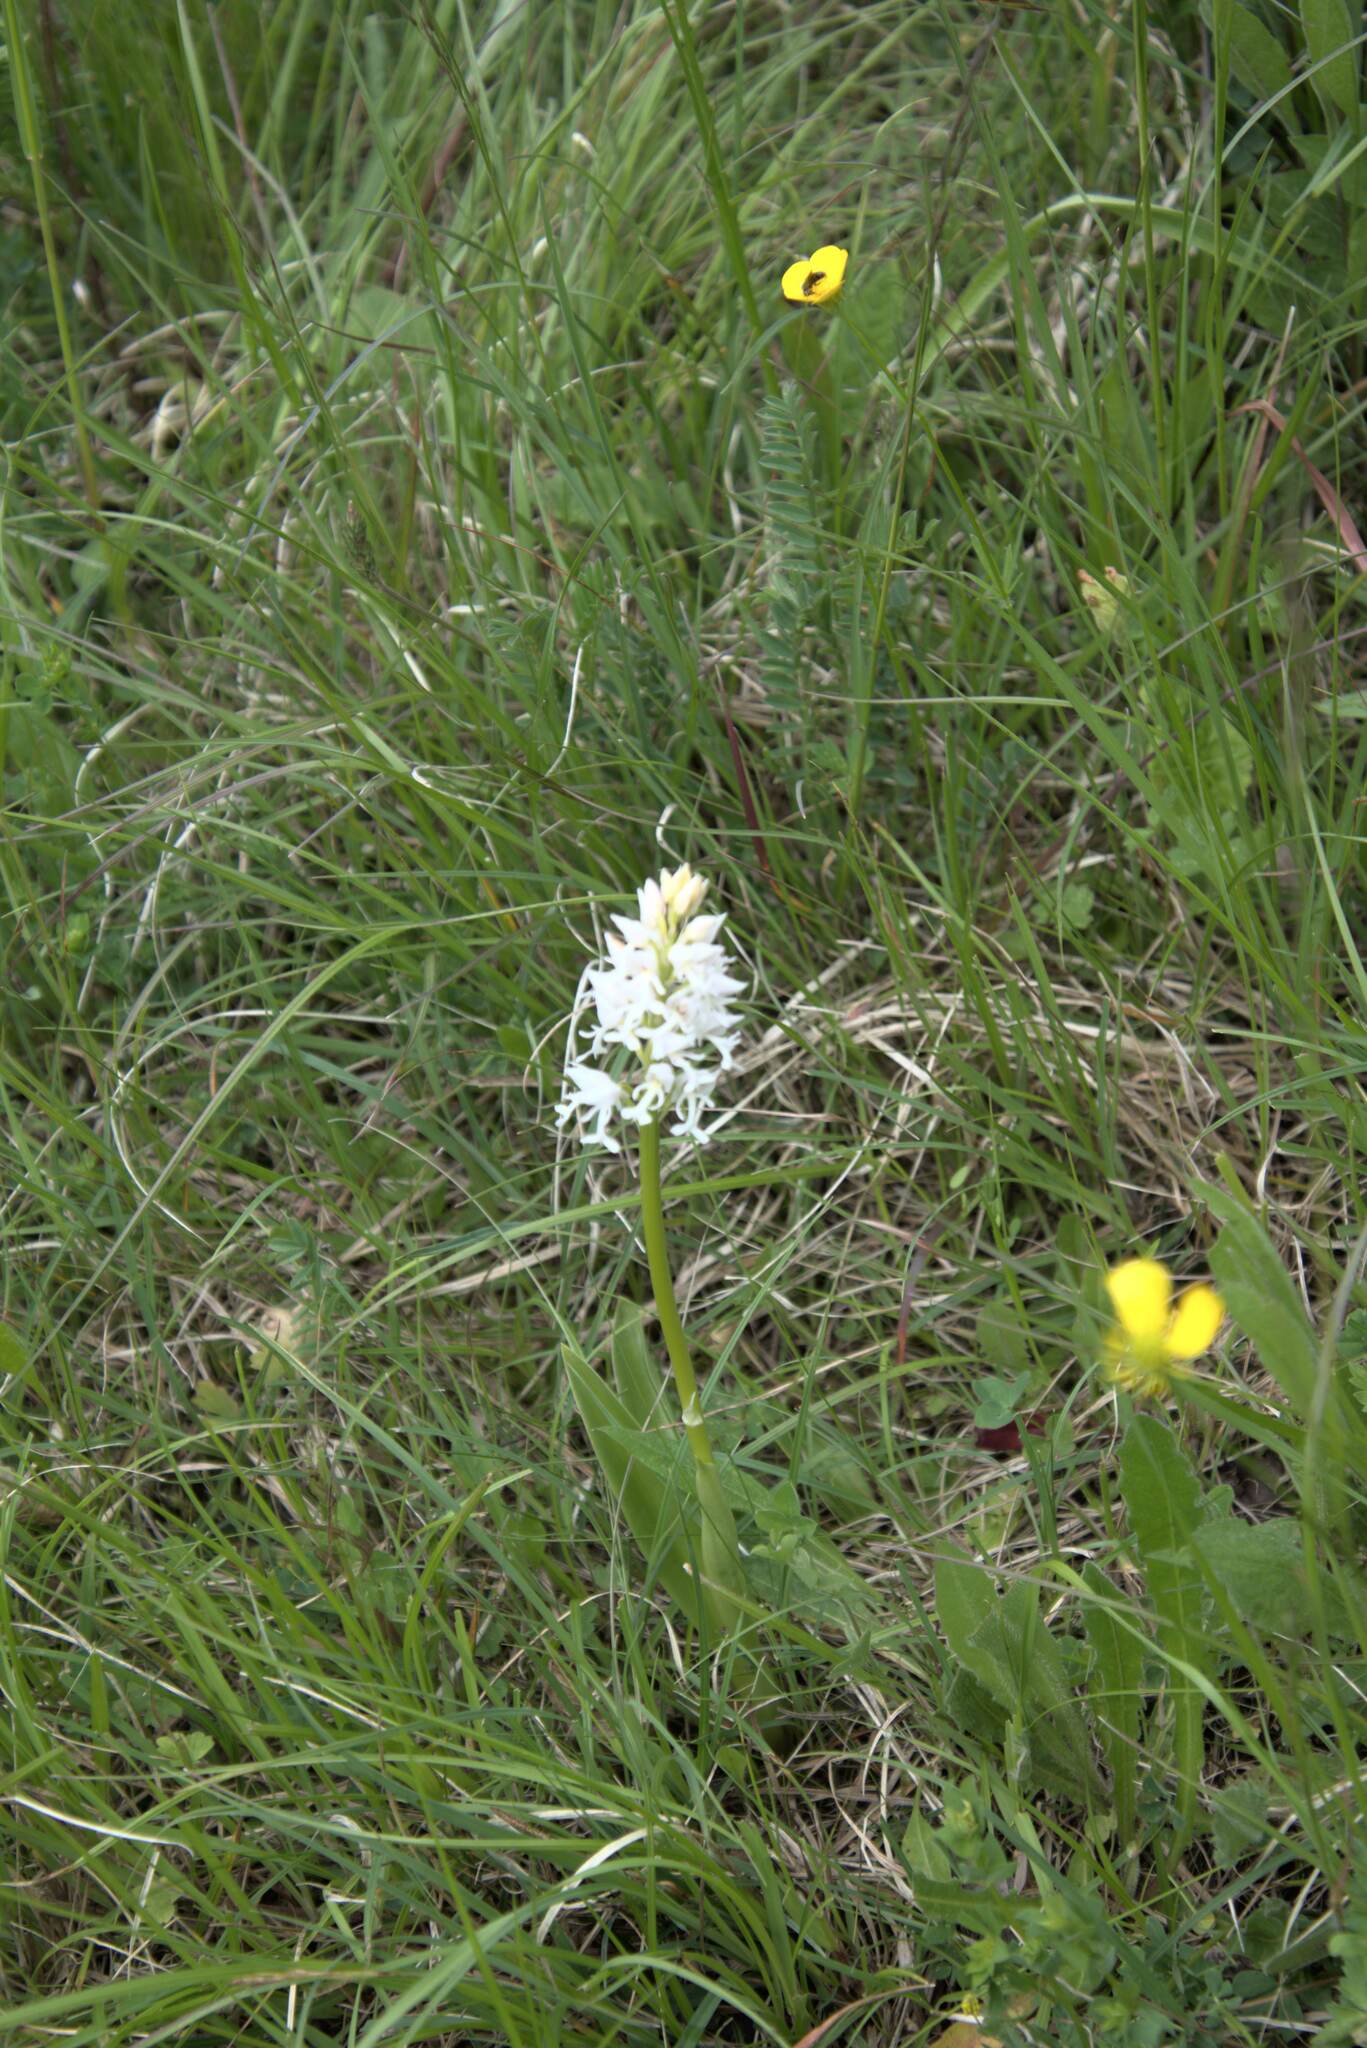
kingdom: Plantae
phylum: Tracheophyta
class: Liliopsida
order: Asparagales
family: Orchidaceae
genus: Orchis
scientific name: Orchis militaris
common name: Military orchid
